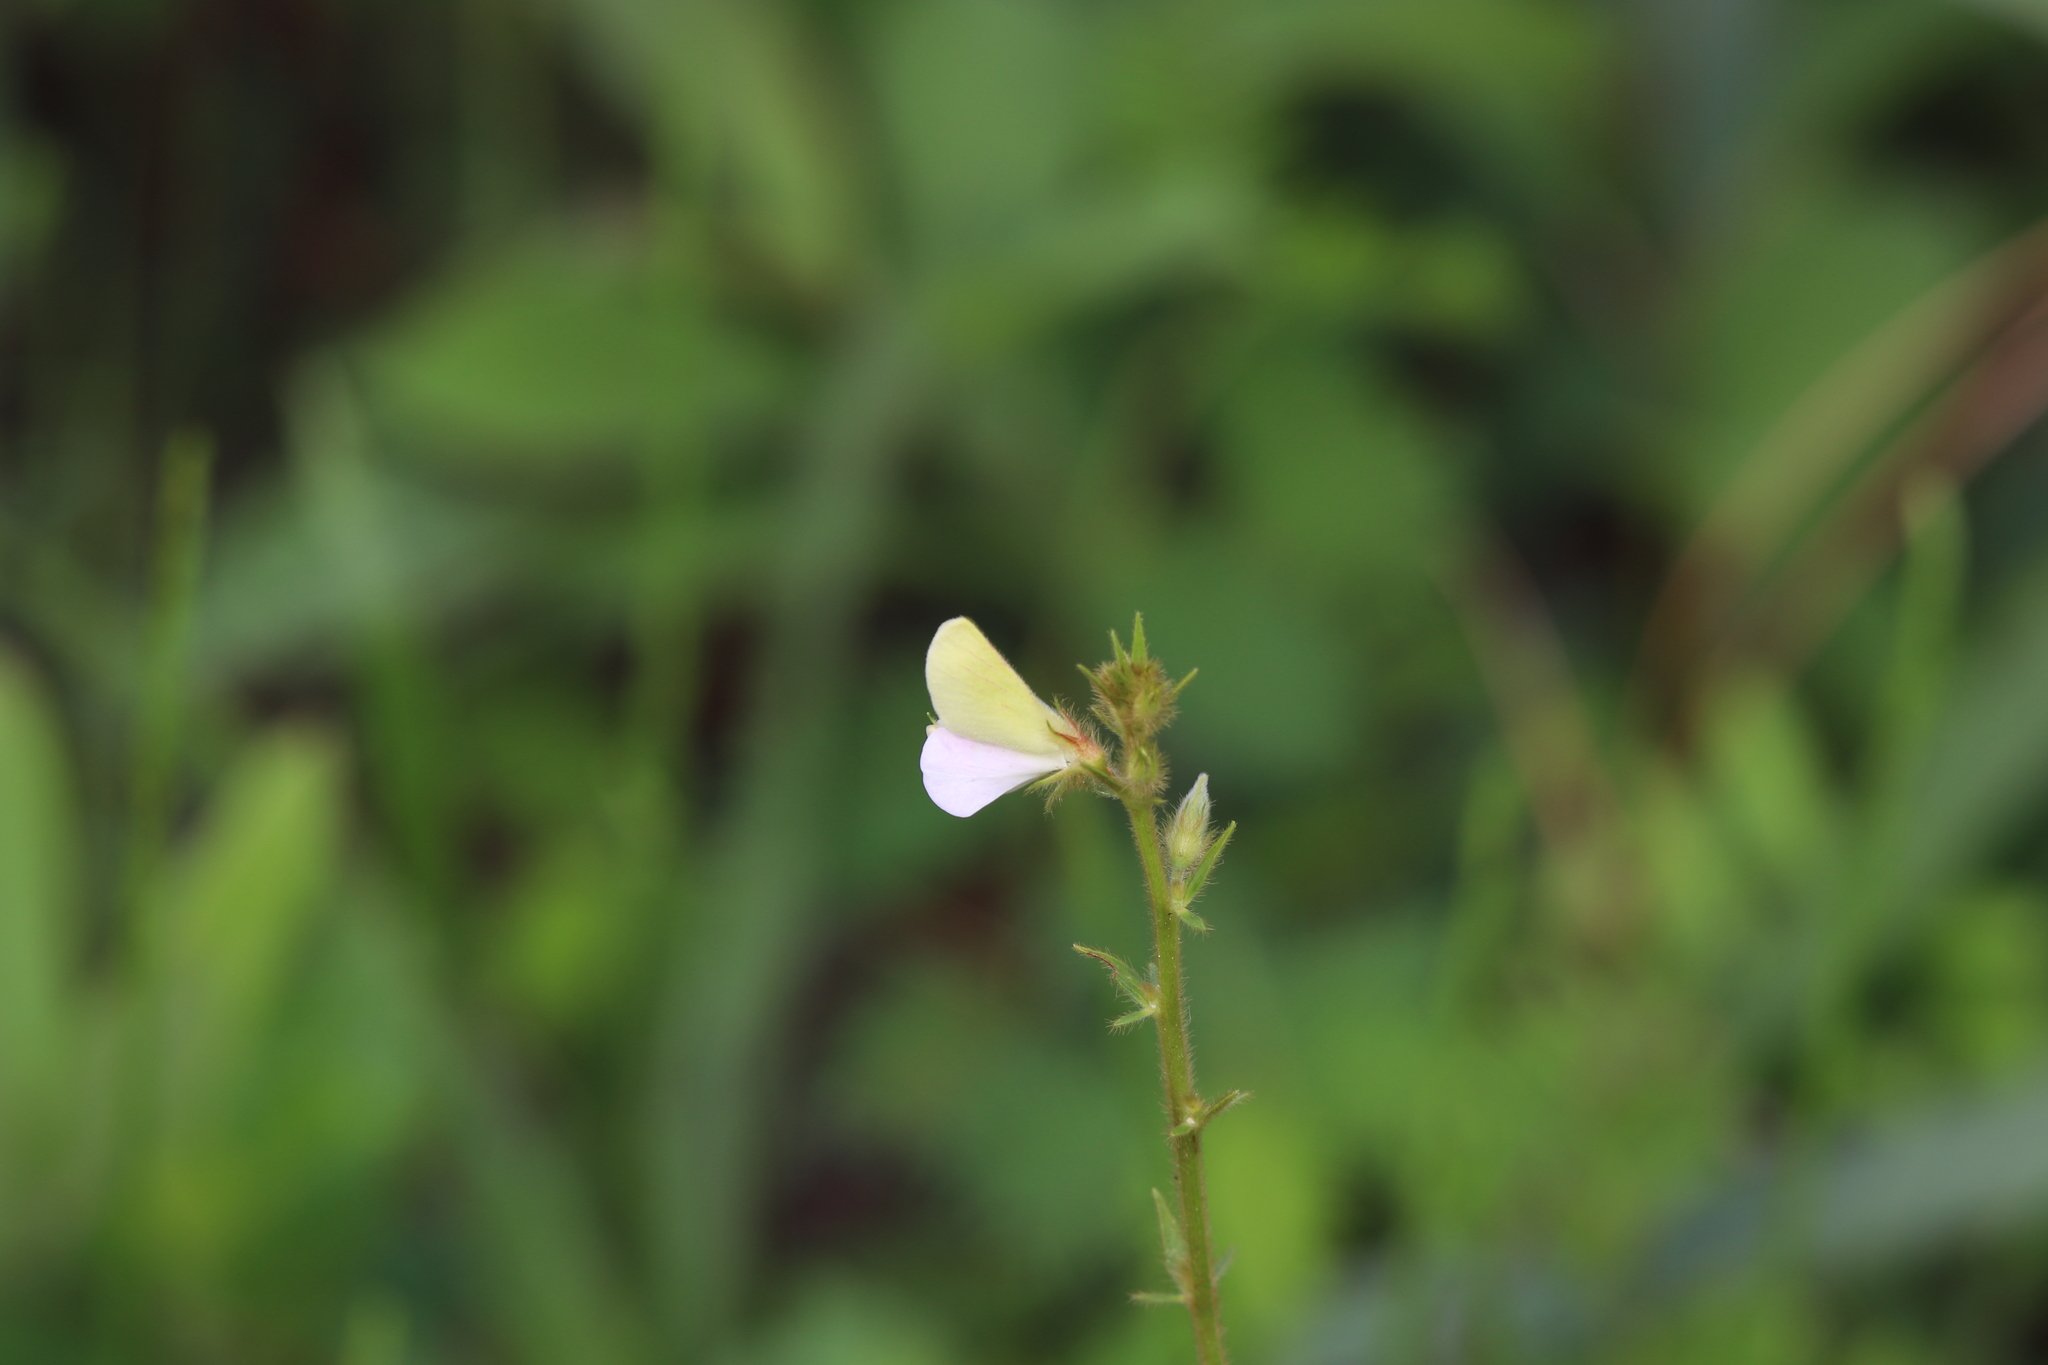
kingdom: Plantae
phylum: Tracheophyta
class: Magnoliopsida
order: Fabales
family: Fabaceae
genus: Tephrosia
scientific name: Tephrosia spicata
